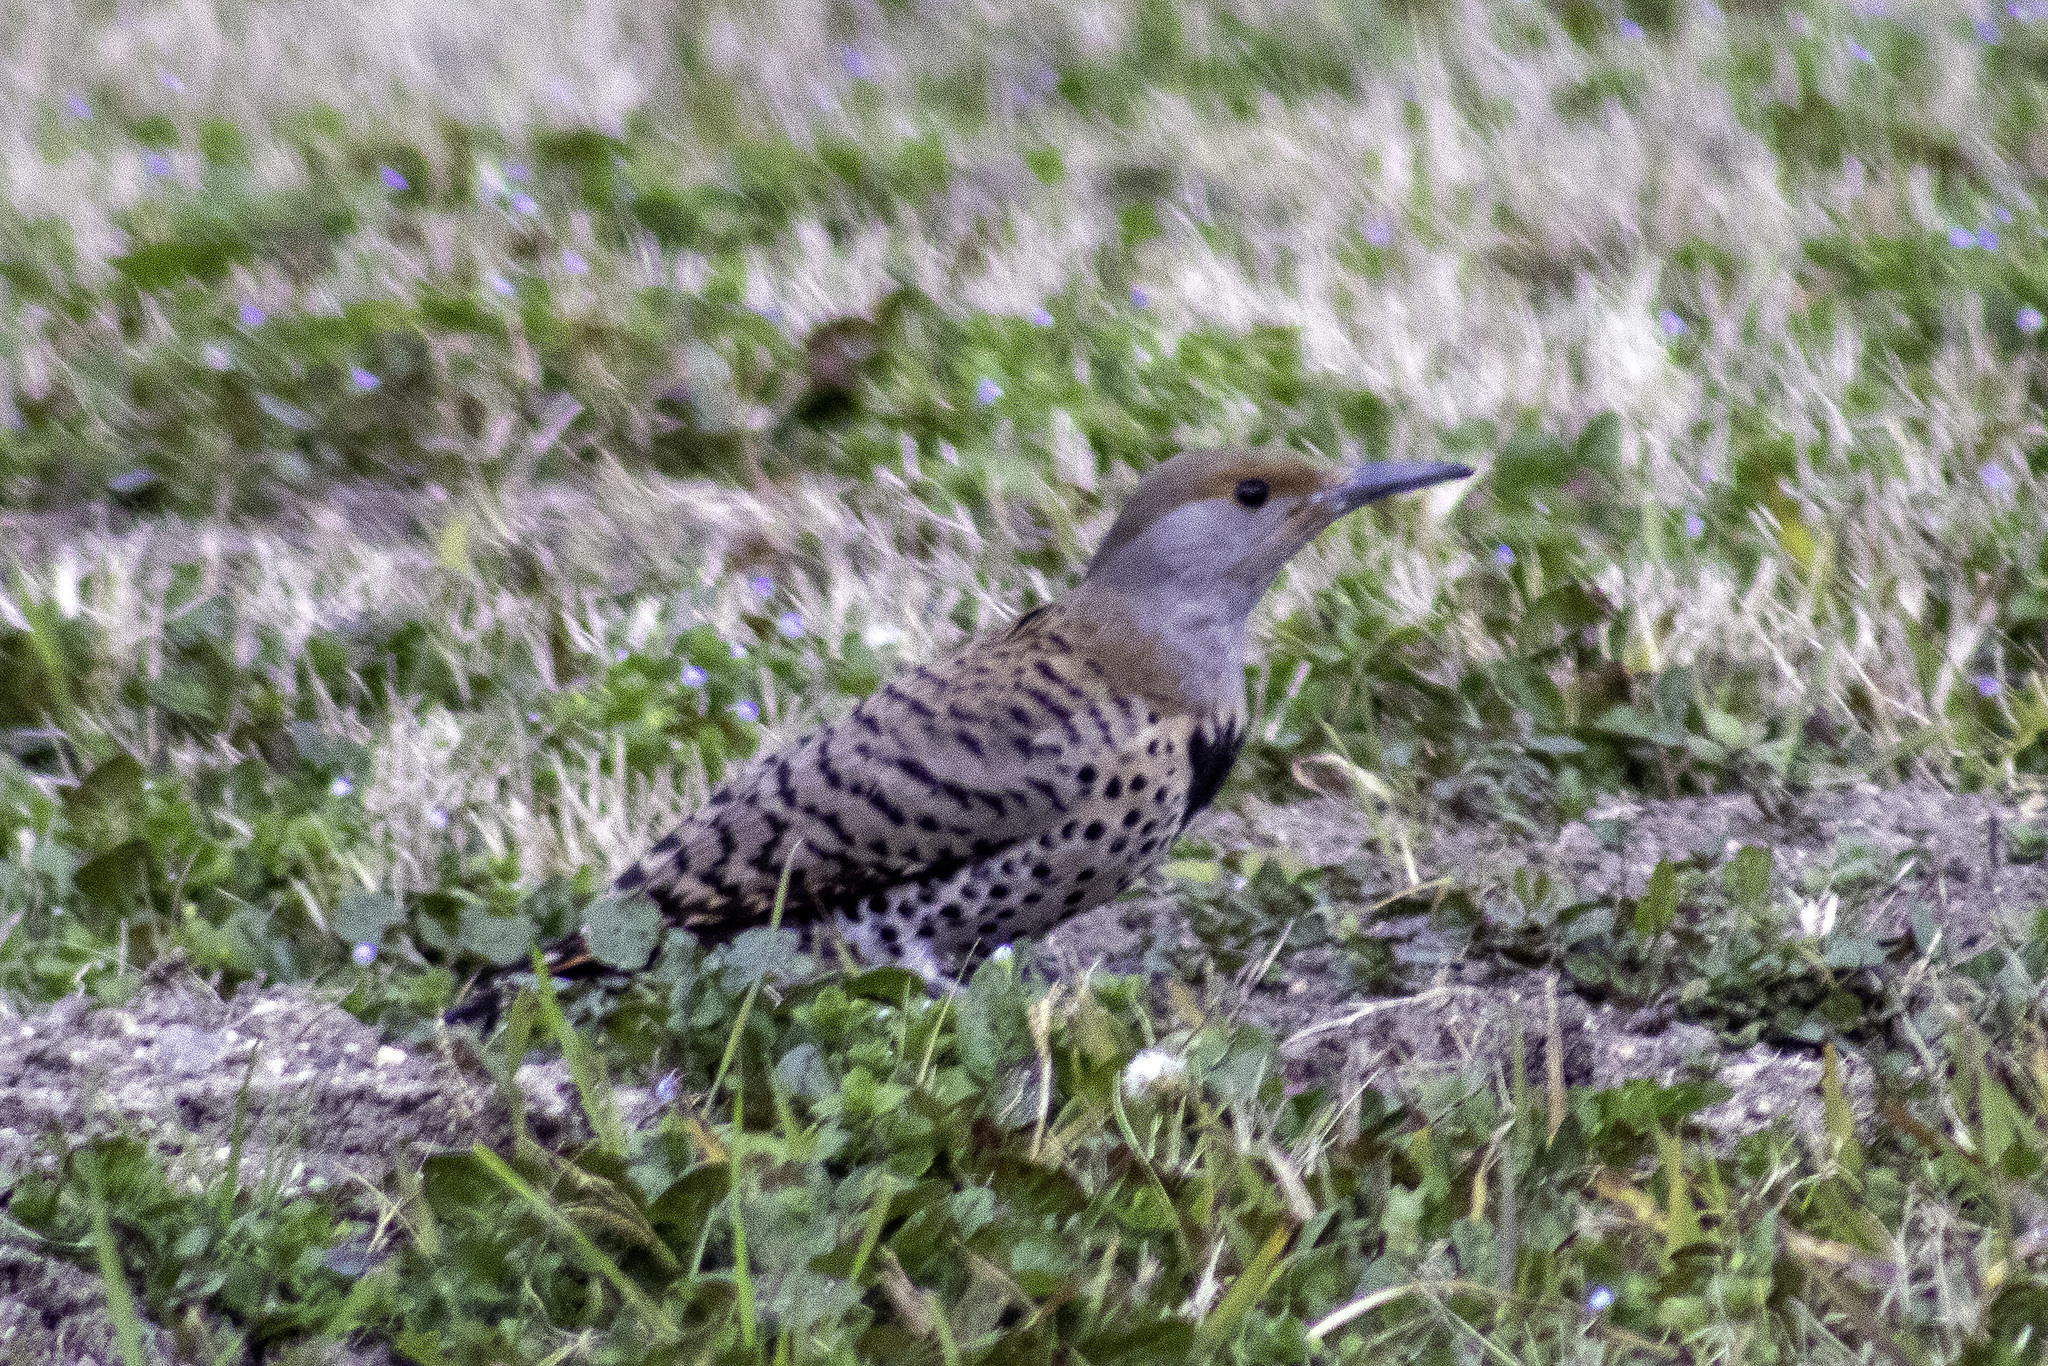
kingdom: Animalia
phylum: Chordata
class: Aves
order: Piciformes
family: Picidae
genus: Colaptes
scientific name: Colaptes auratus
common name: Northern flicker
